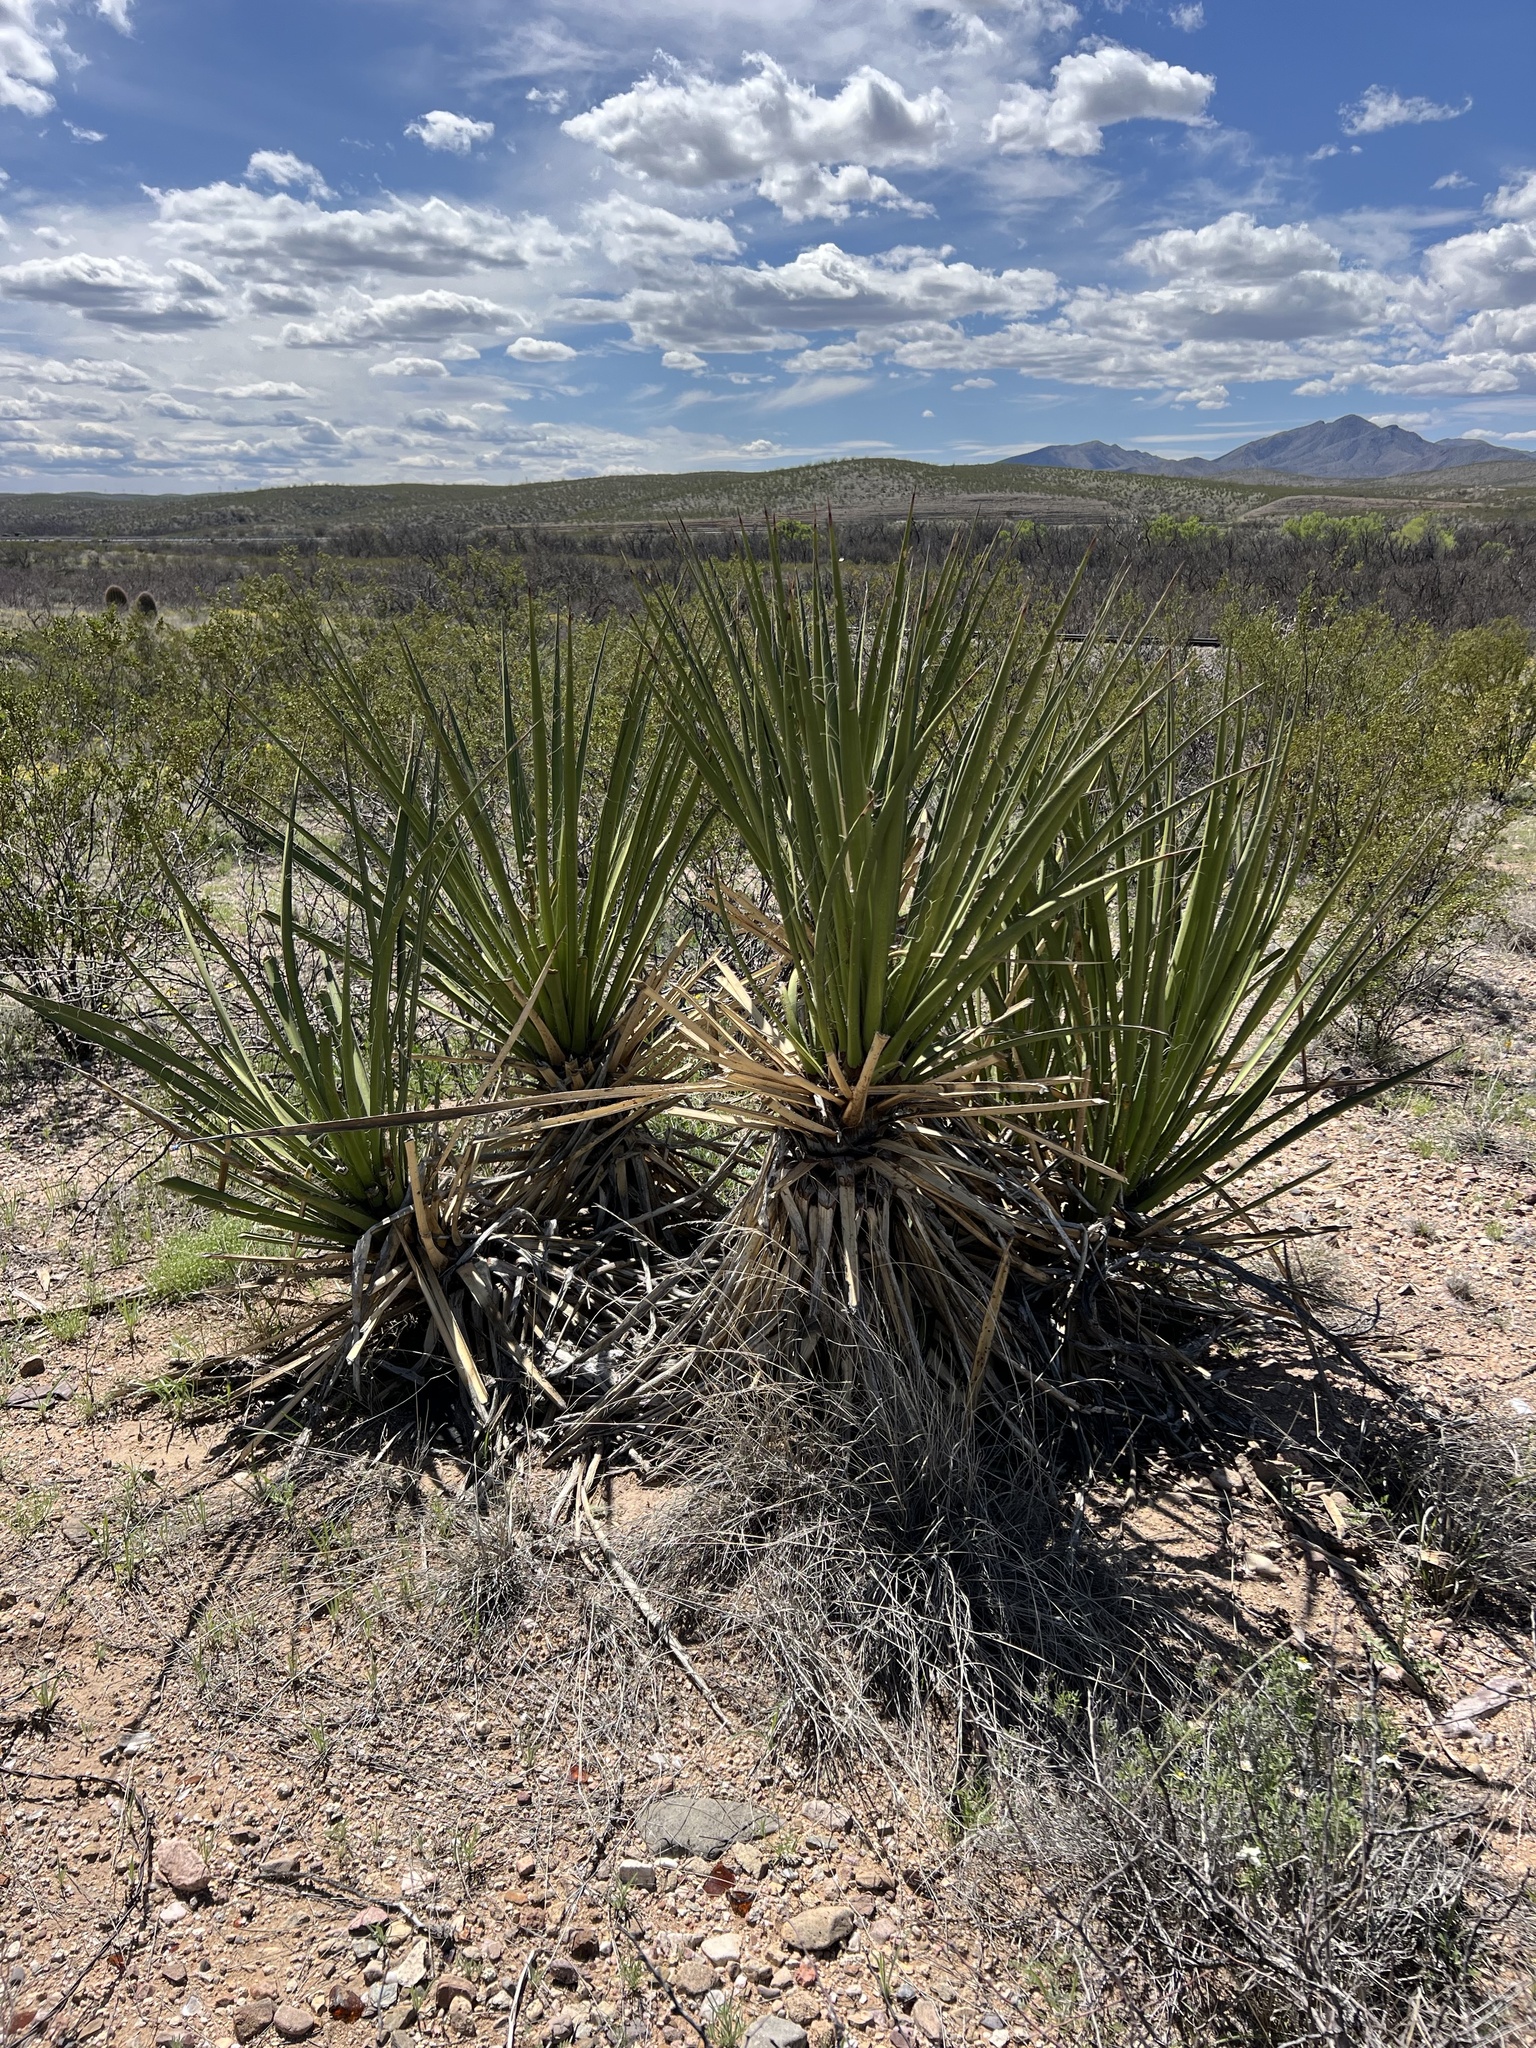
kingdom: Plantae
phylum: Tracheophyta
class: Liliopsida
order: Asparagales
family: Asparagaceae
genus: Yucca
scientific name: Yucca baccata
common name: Banana yucca
